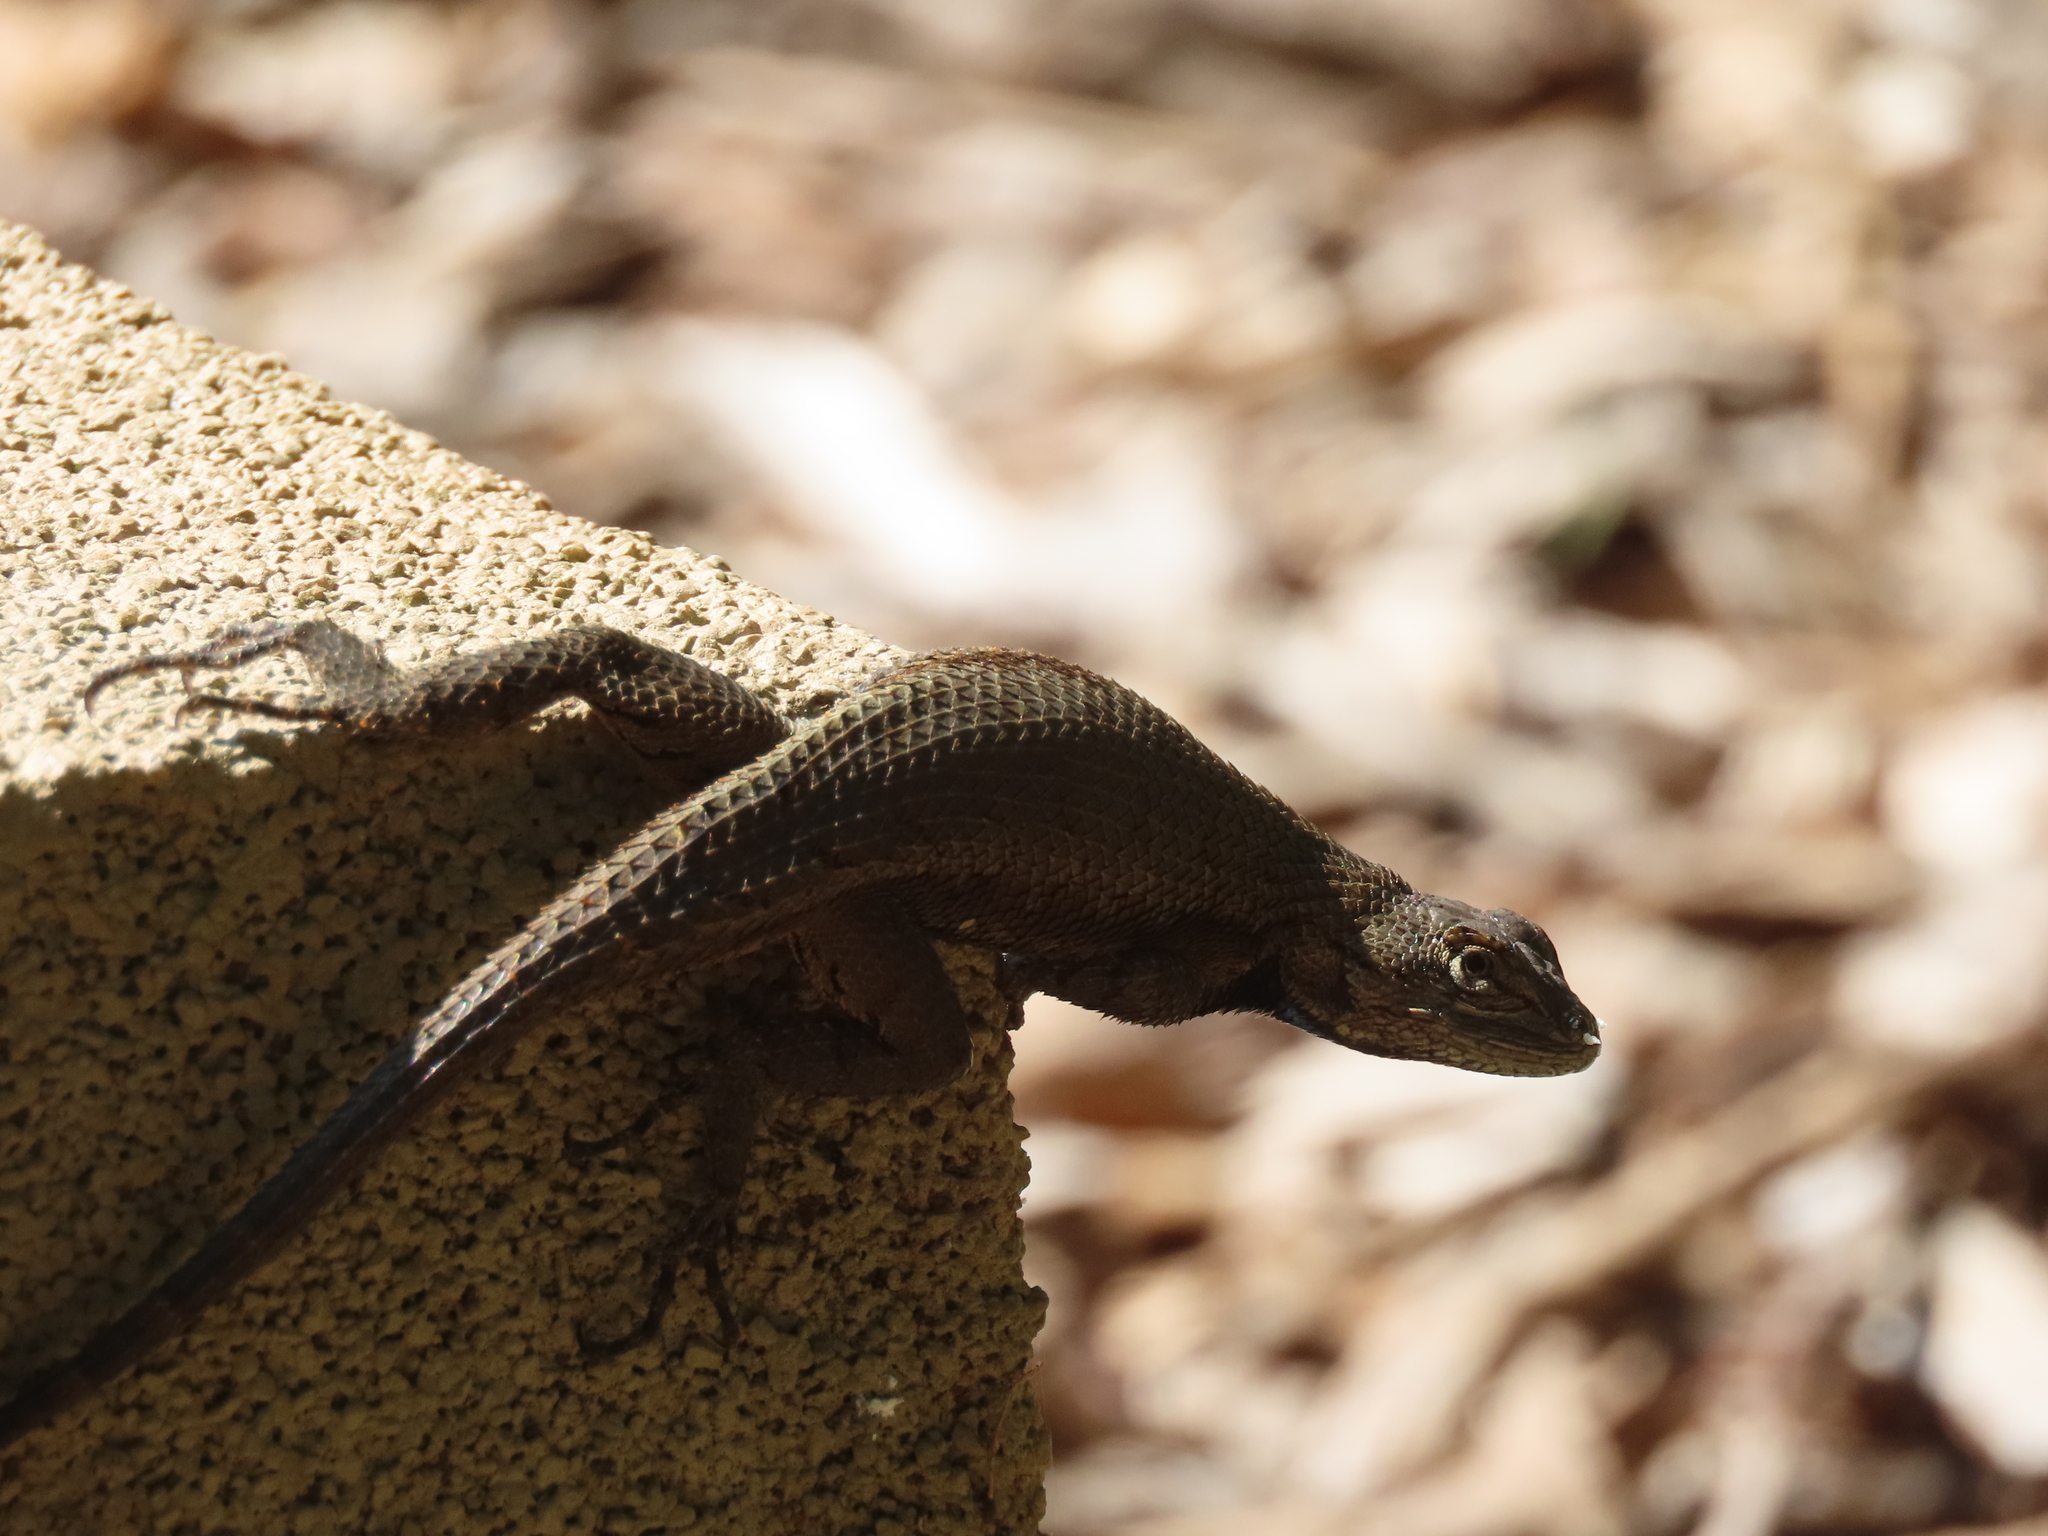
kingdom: Animalia
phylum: Chordata
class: Squamata
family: Phrynosomatidae
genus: Sceloporus
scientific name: Sceloporus undulatus
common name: Eastern fence lizard
